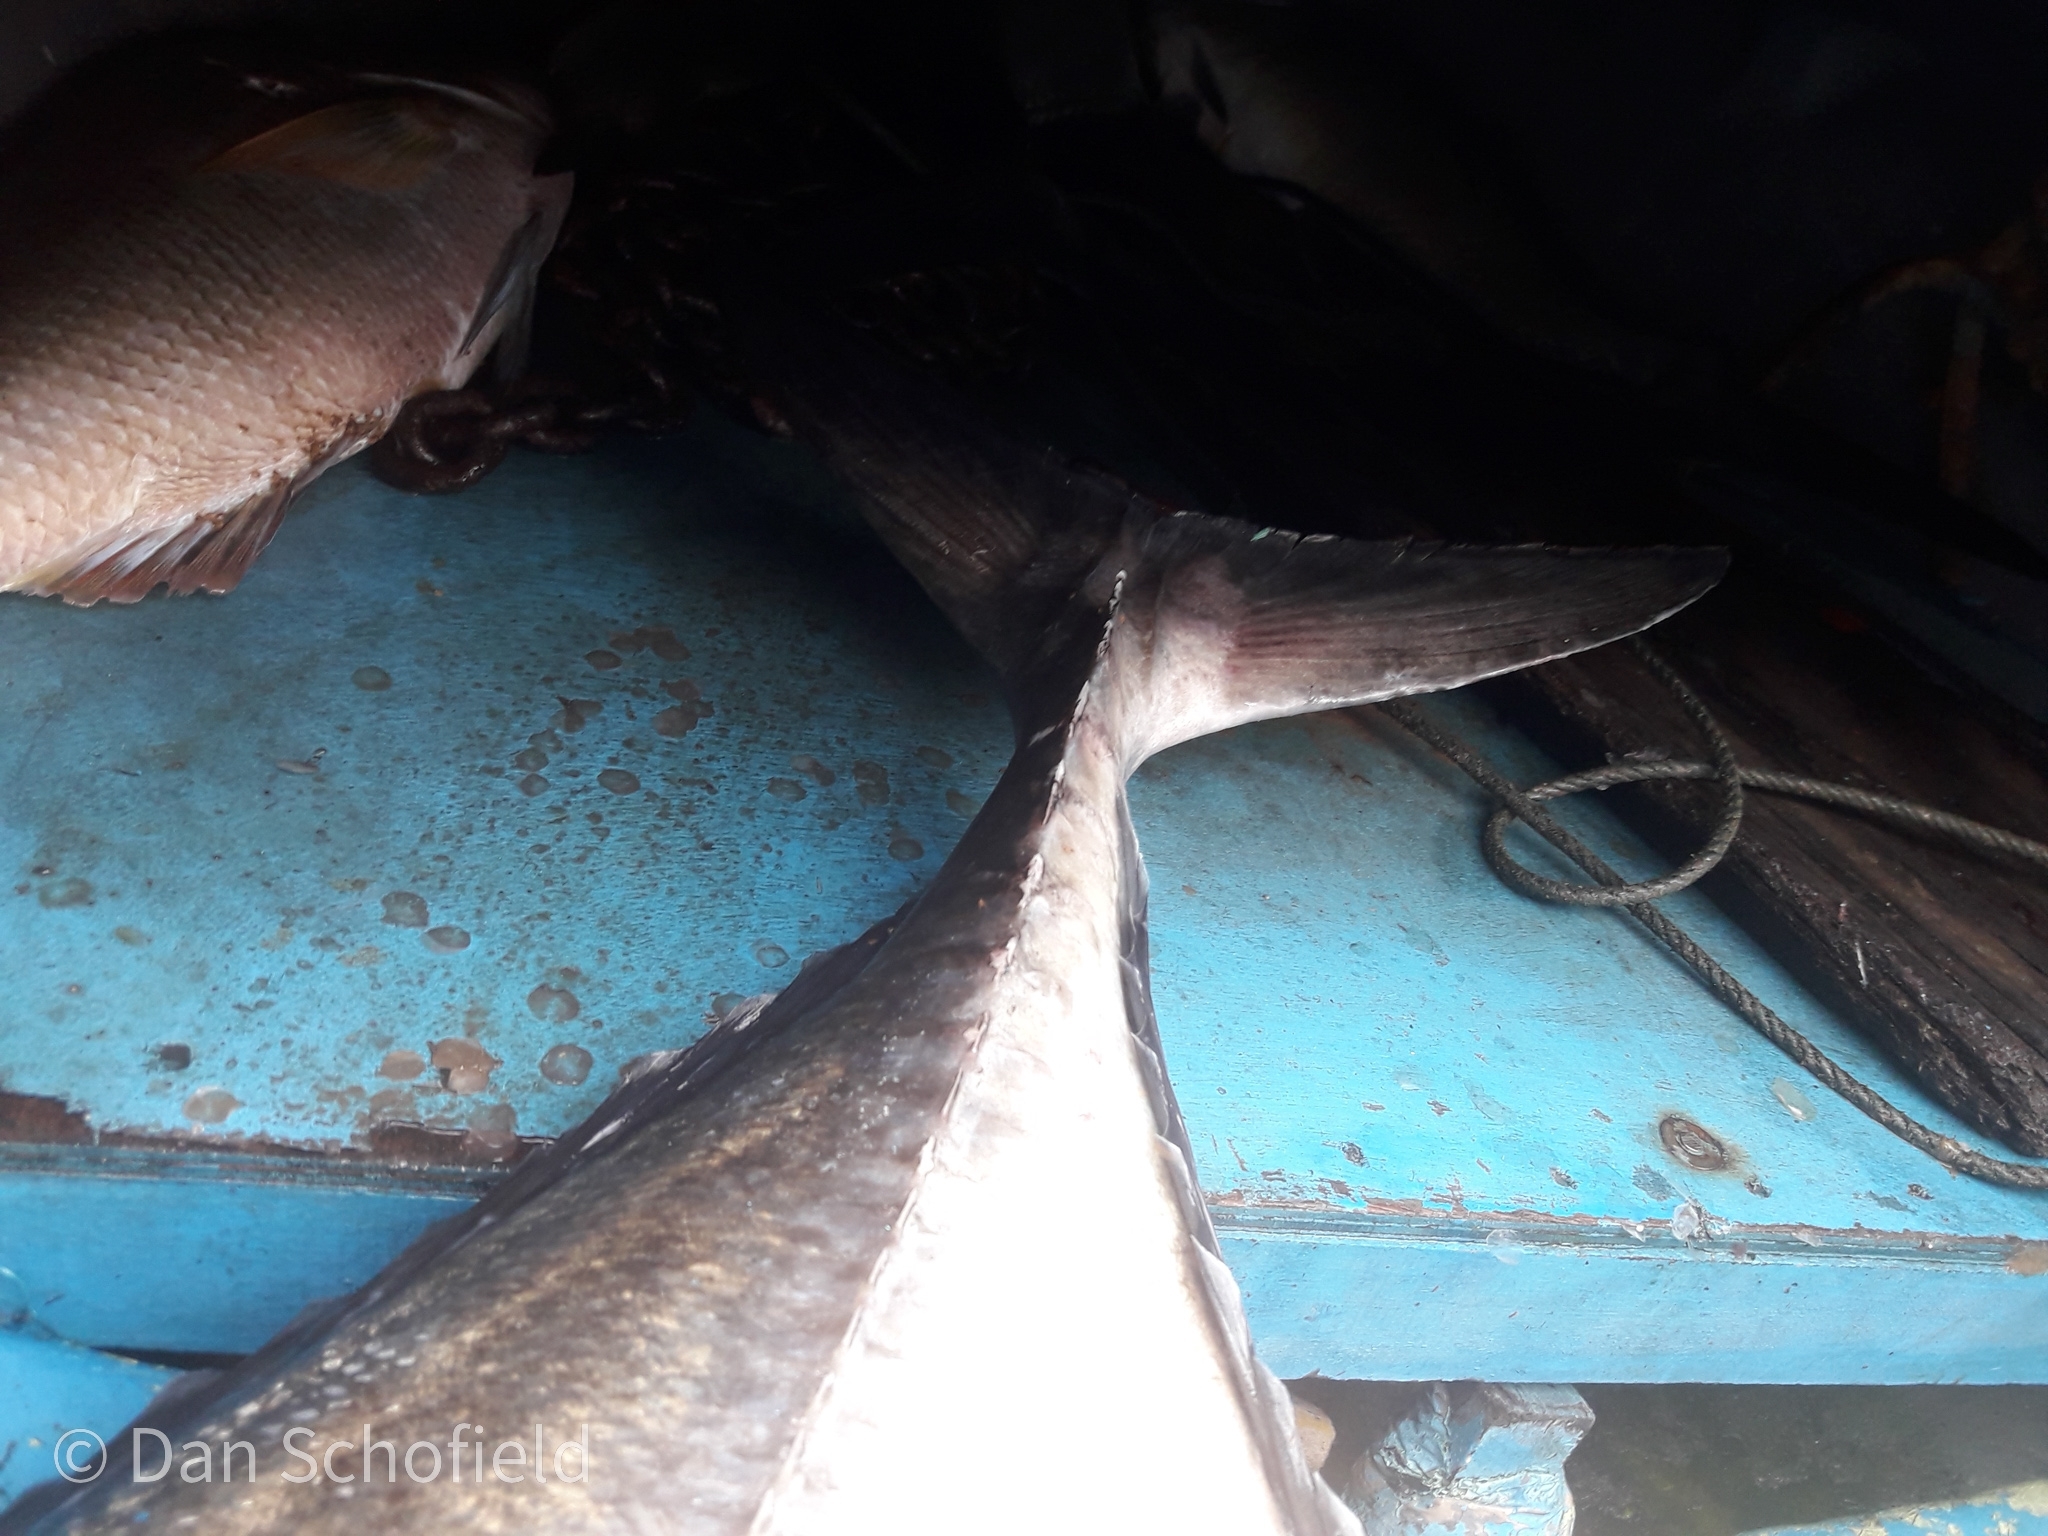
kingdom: Animalia
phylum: Chordata
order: Perciformes
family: Carangidae
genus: Caranx
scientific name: Caranx ignobilis
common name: Giant trevally
